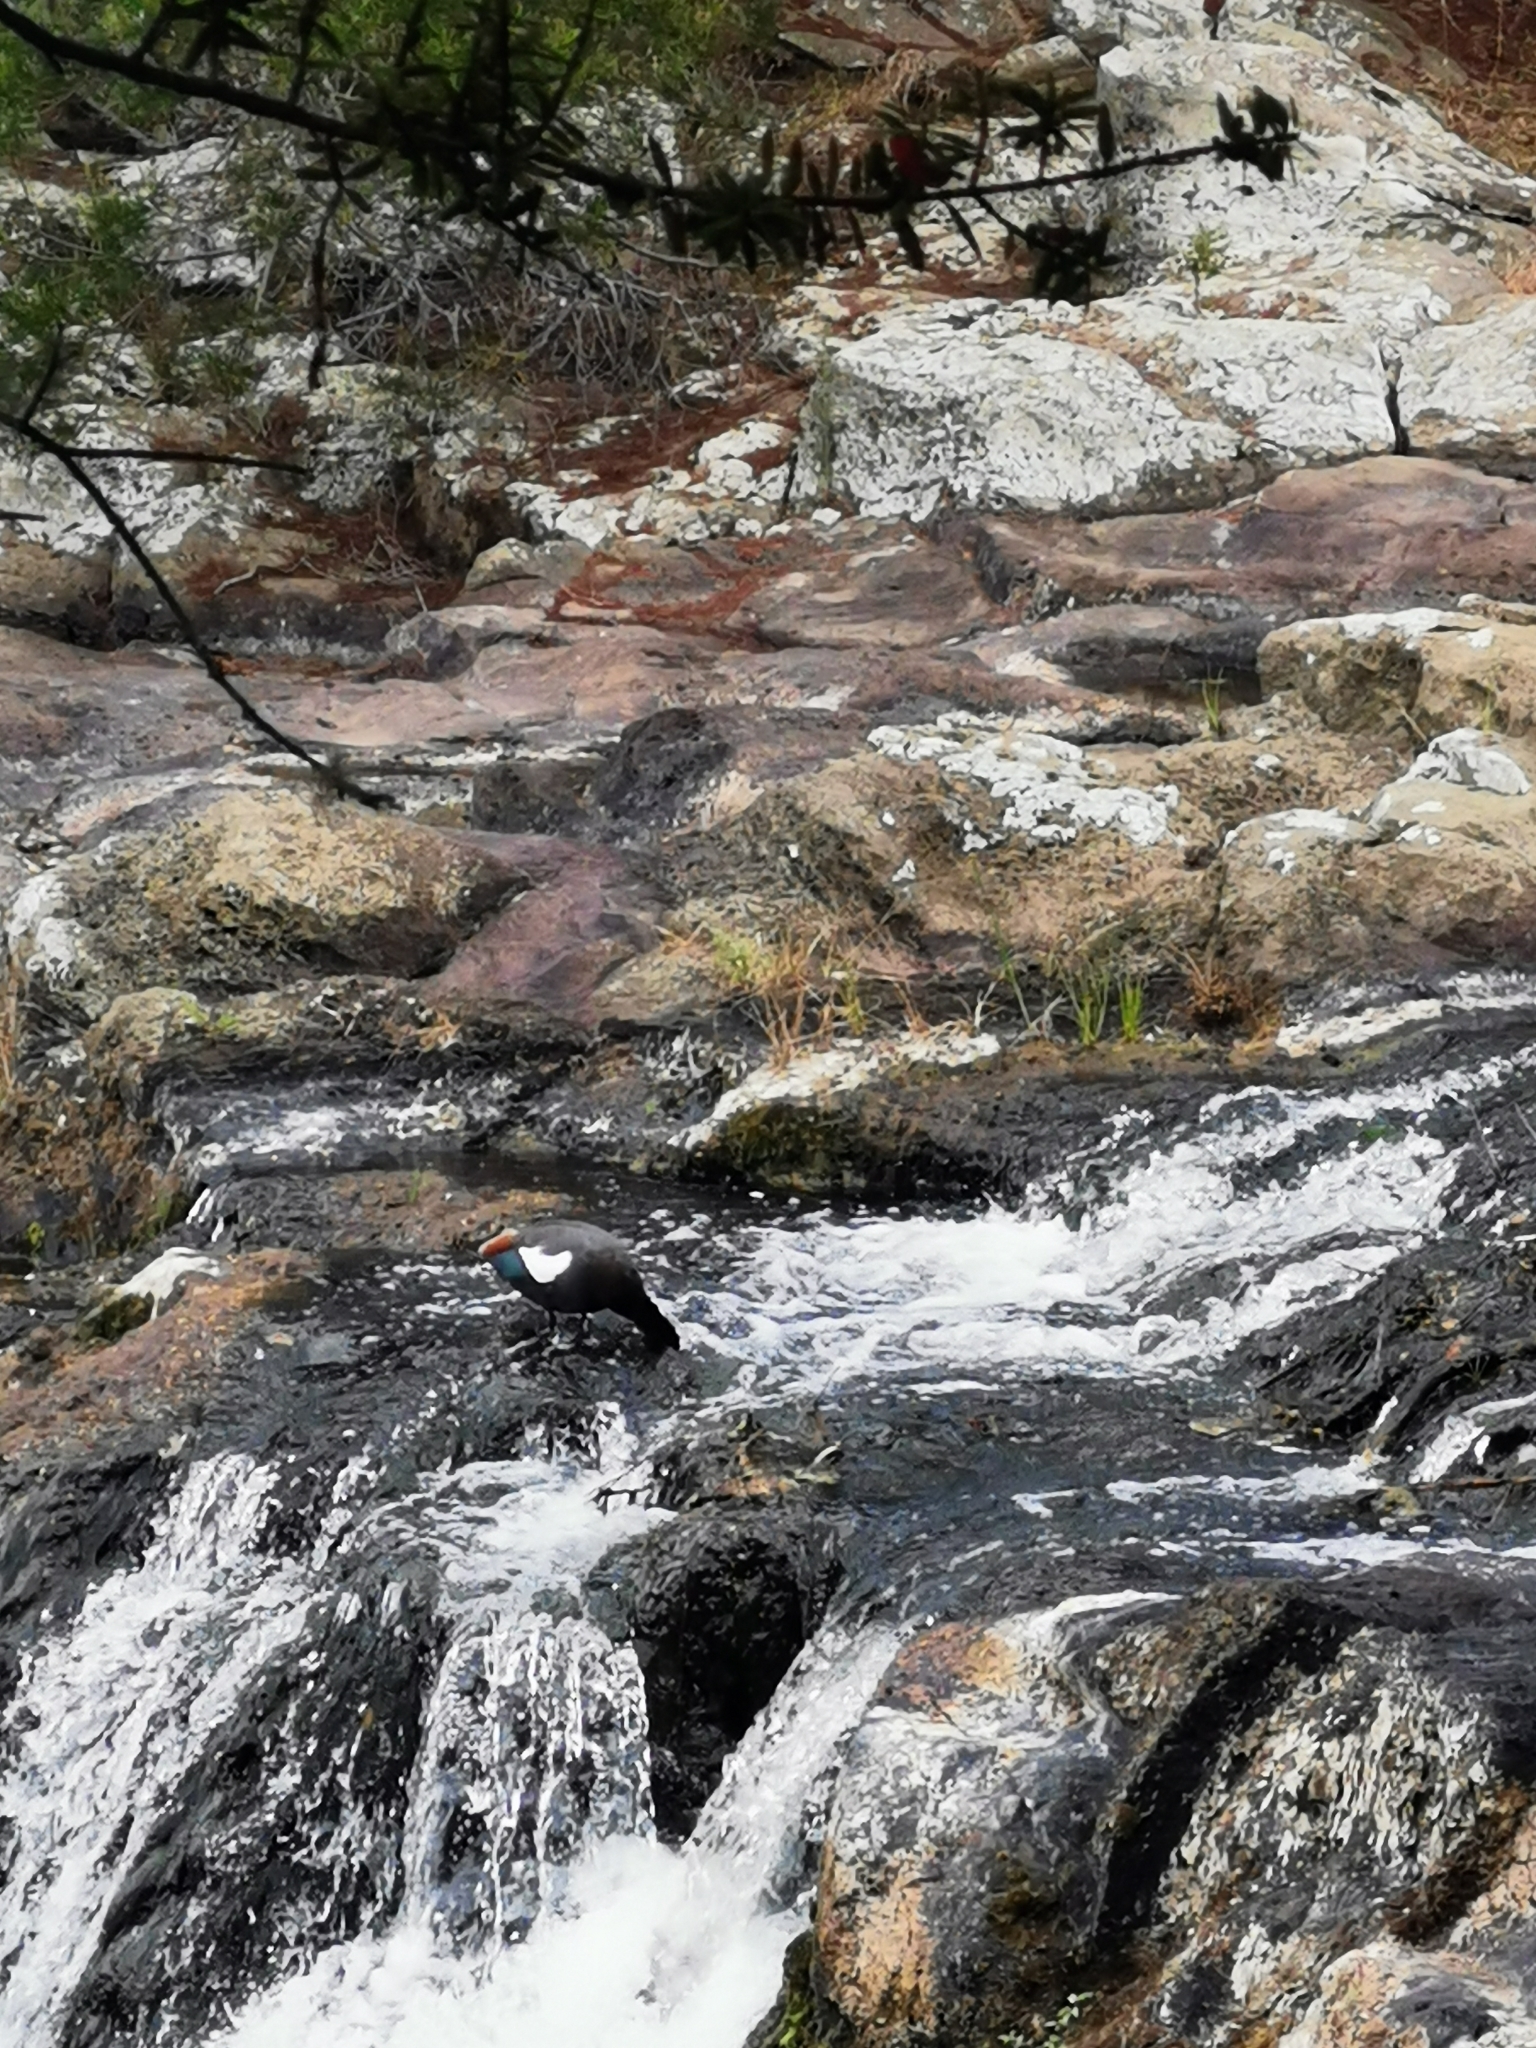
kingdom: Animalia
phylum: Chordata
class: Aves
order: Anseriformes
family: Anatidae
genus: Tadorna
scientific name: Tadorna variegata
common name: Paradise shelduck
